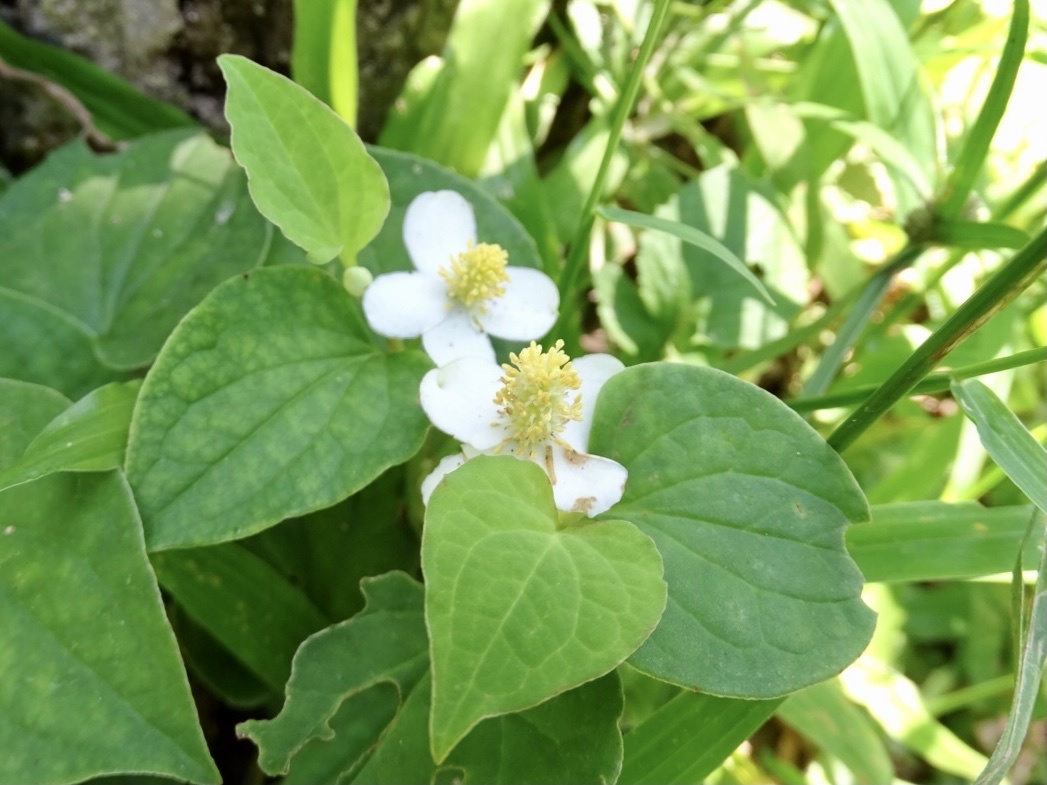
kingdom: Plantae
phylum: Tracheophyta
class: Magnoliopsida
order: Piperales
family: Saururaceae
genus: Houttuynia
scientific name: Houttuynia cordata
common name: Chameleon
